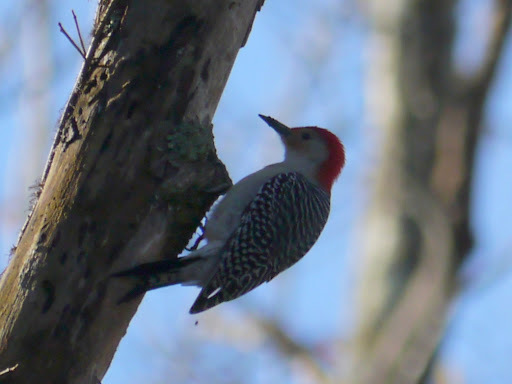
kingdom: Animalia
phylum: Chordata
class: Aves
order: Piciformes
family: Picidae
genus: Melanerpes
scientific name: Melanerpes carolinus
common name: Red-bellied woodpecker
